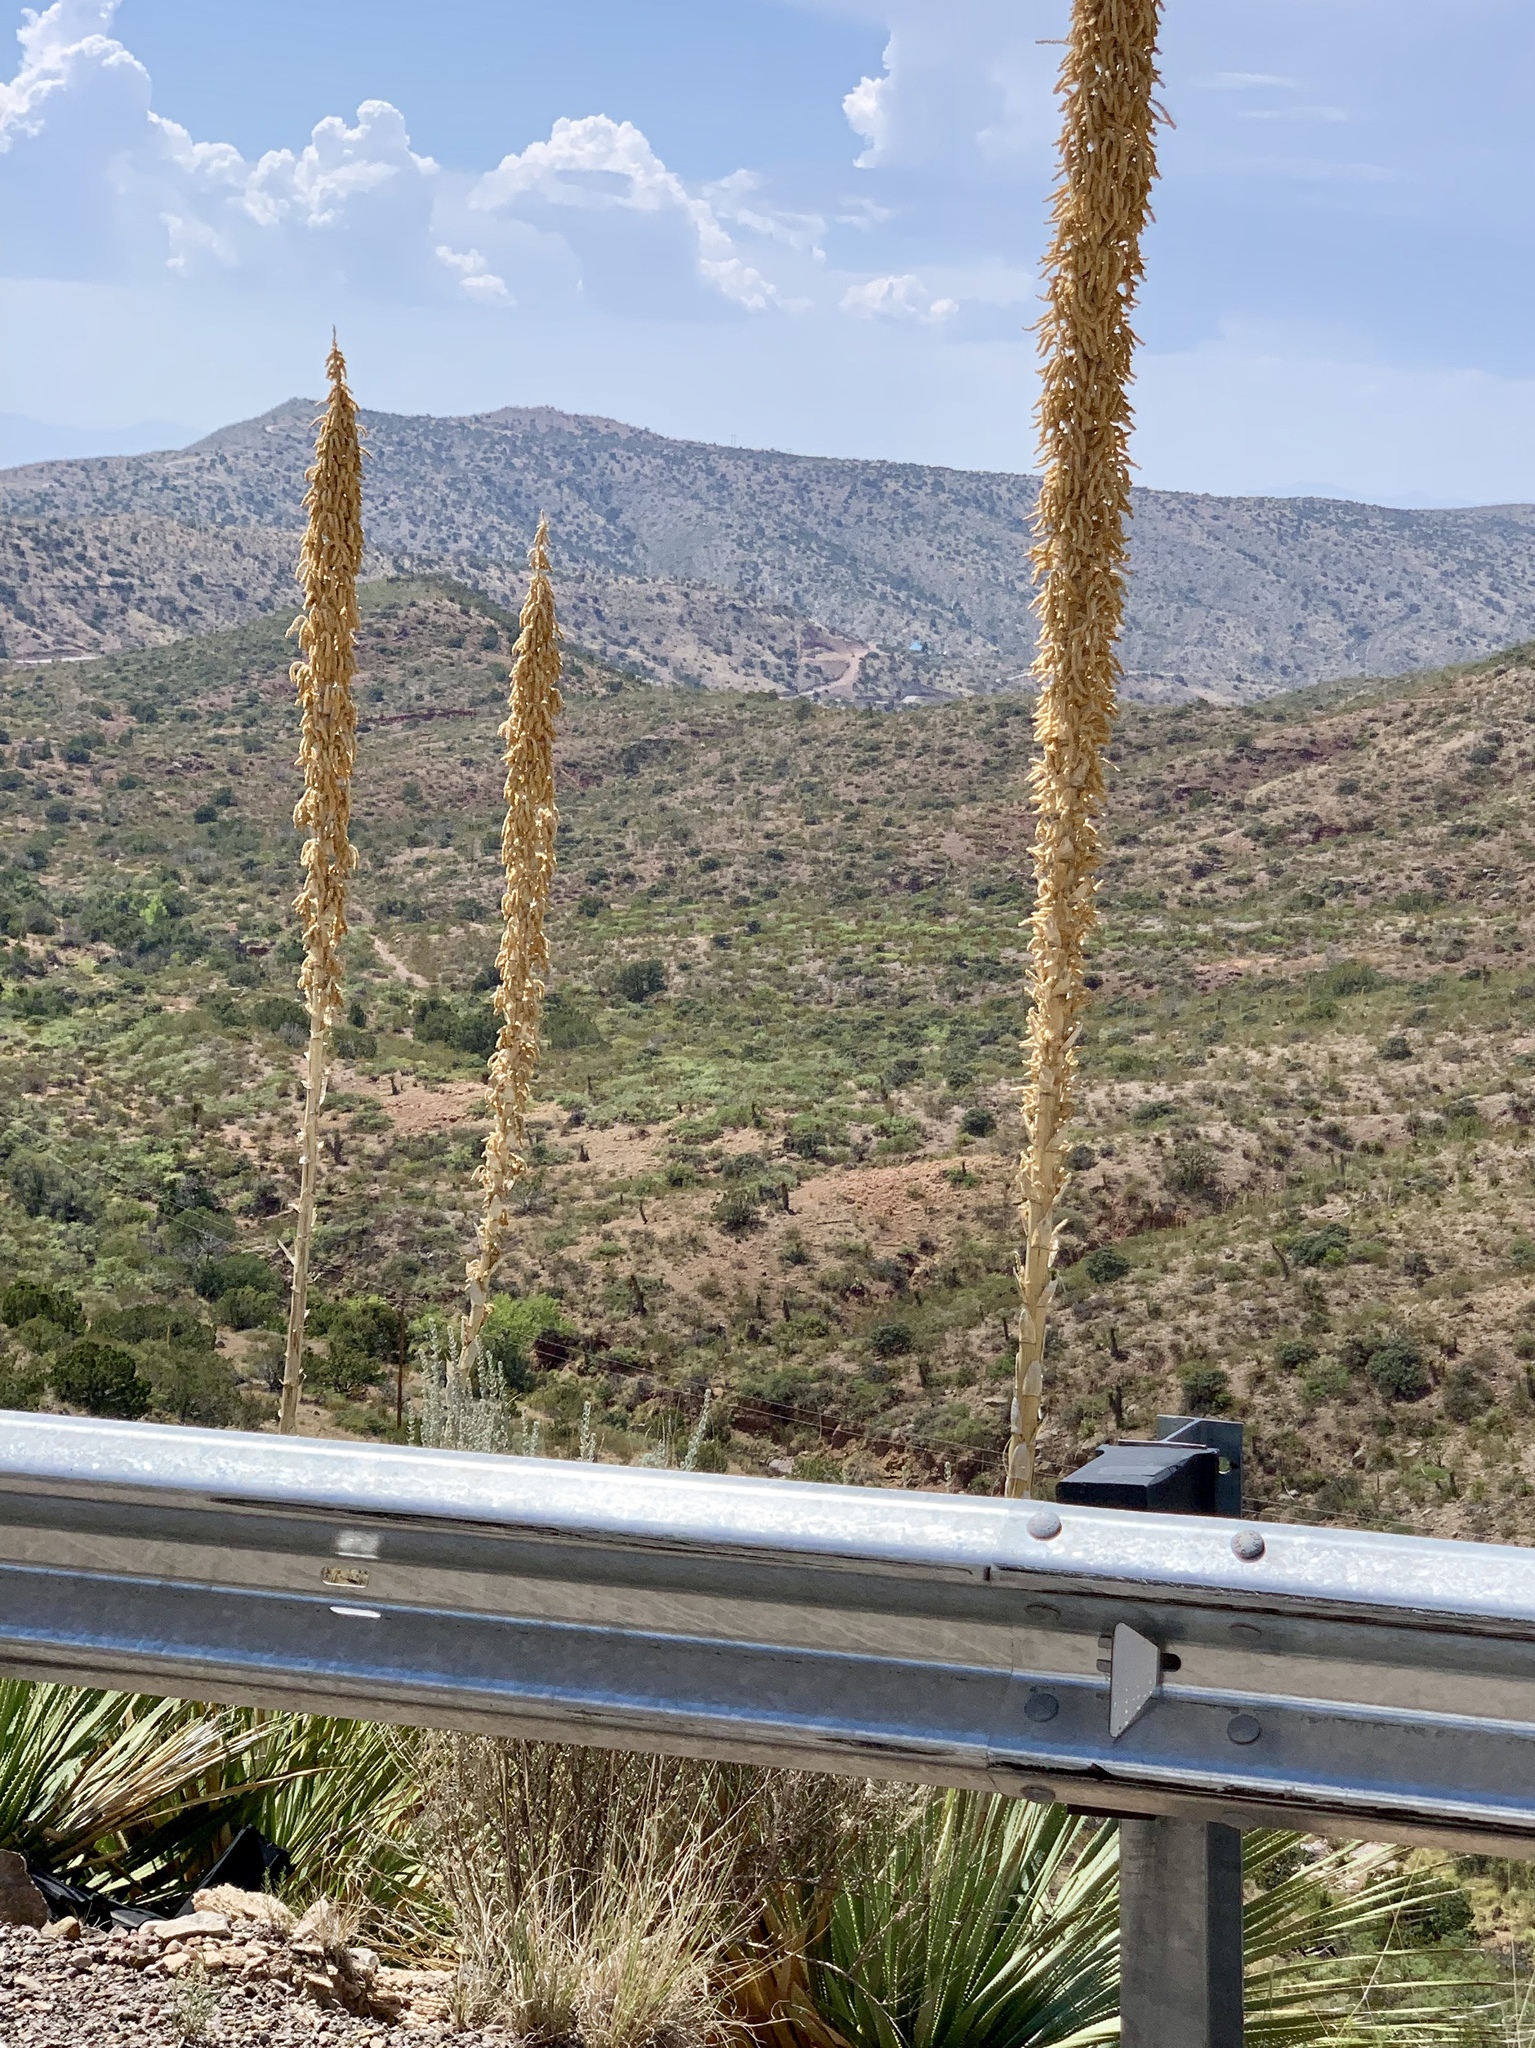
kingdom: Plantae
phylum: Tracheophyta
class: Liliopsida
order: Asparagales
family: Asparagaceae
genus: Dasylirion
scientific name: Dasylirion wheeleri
